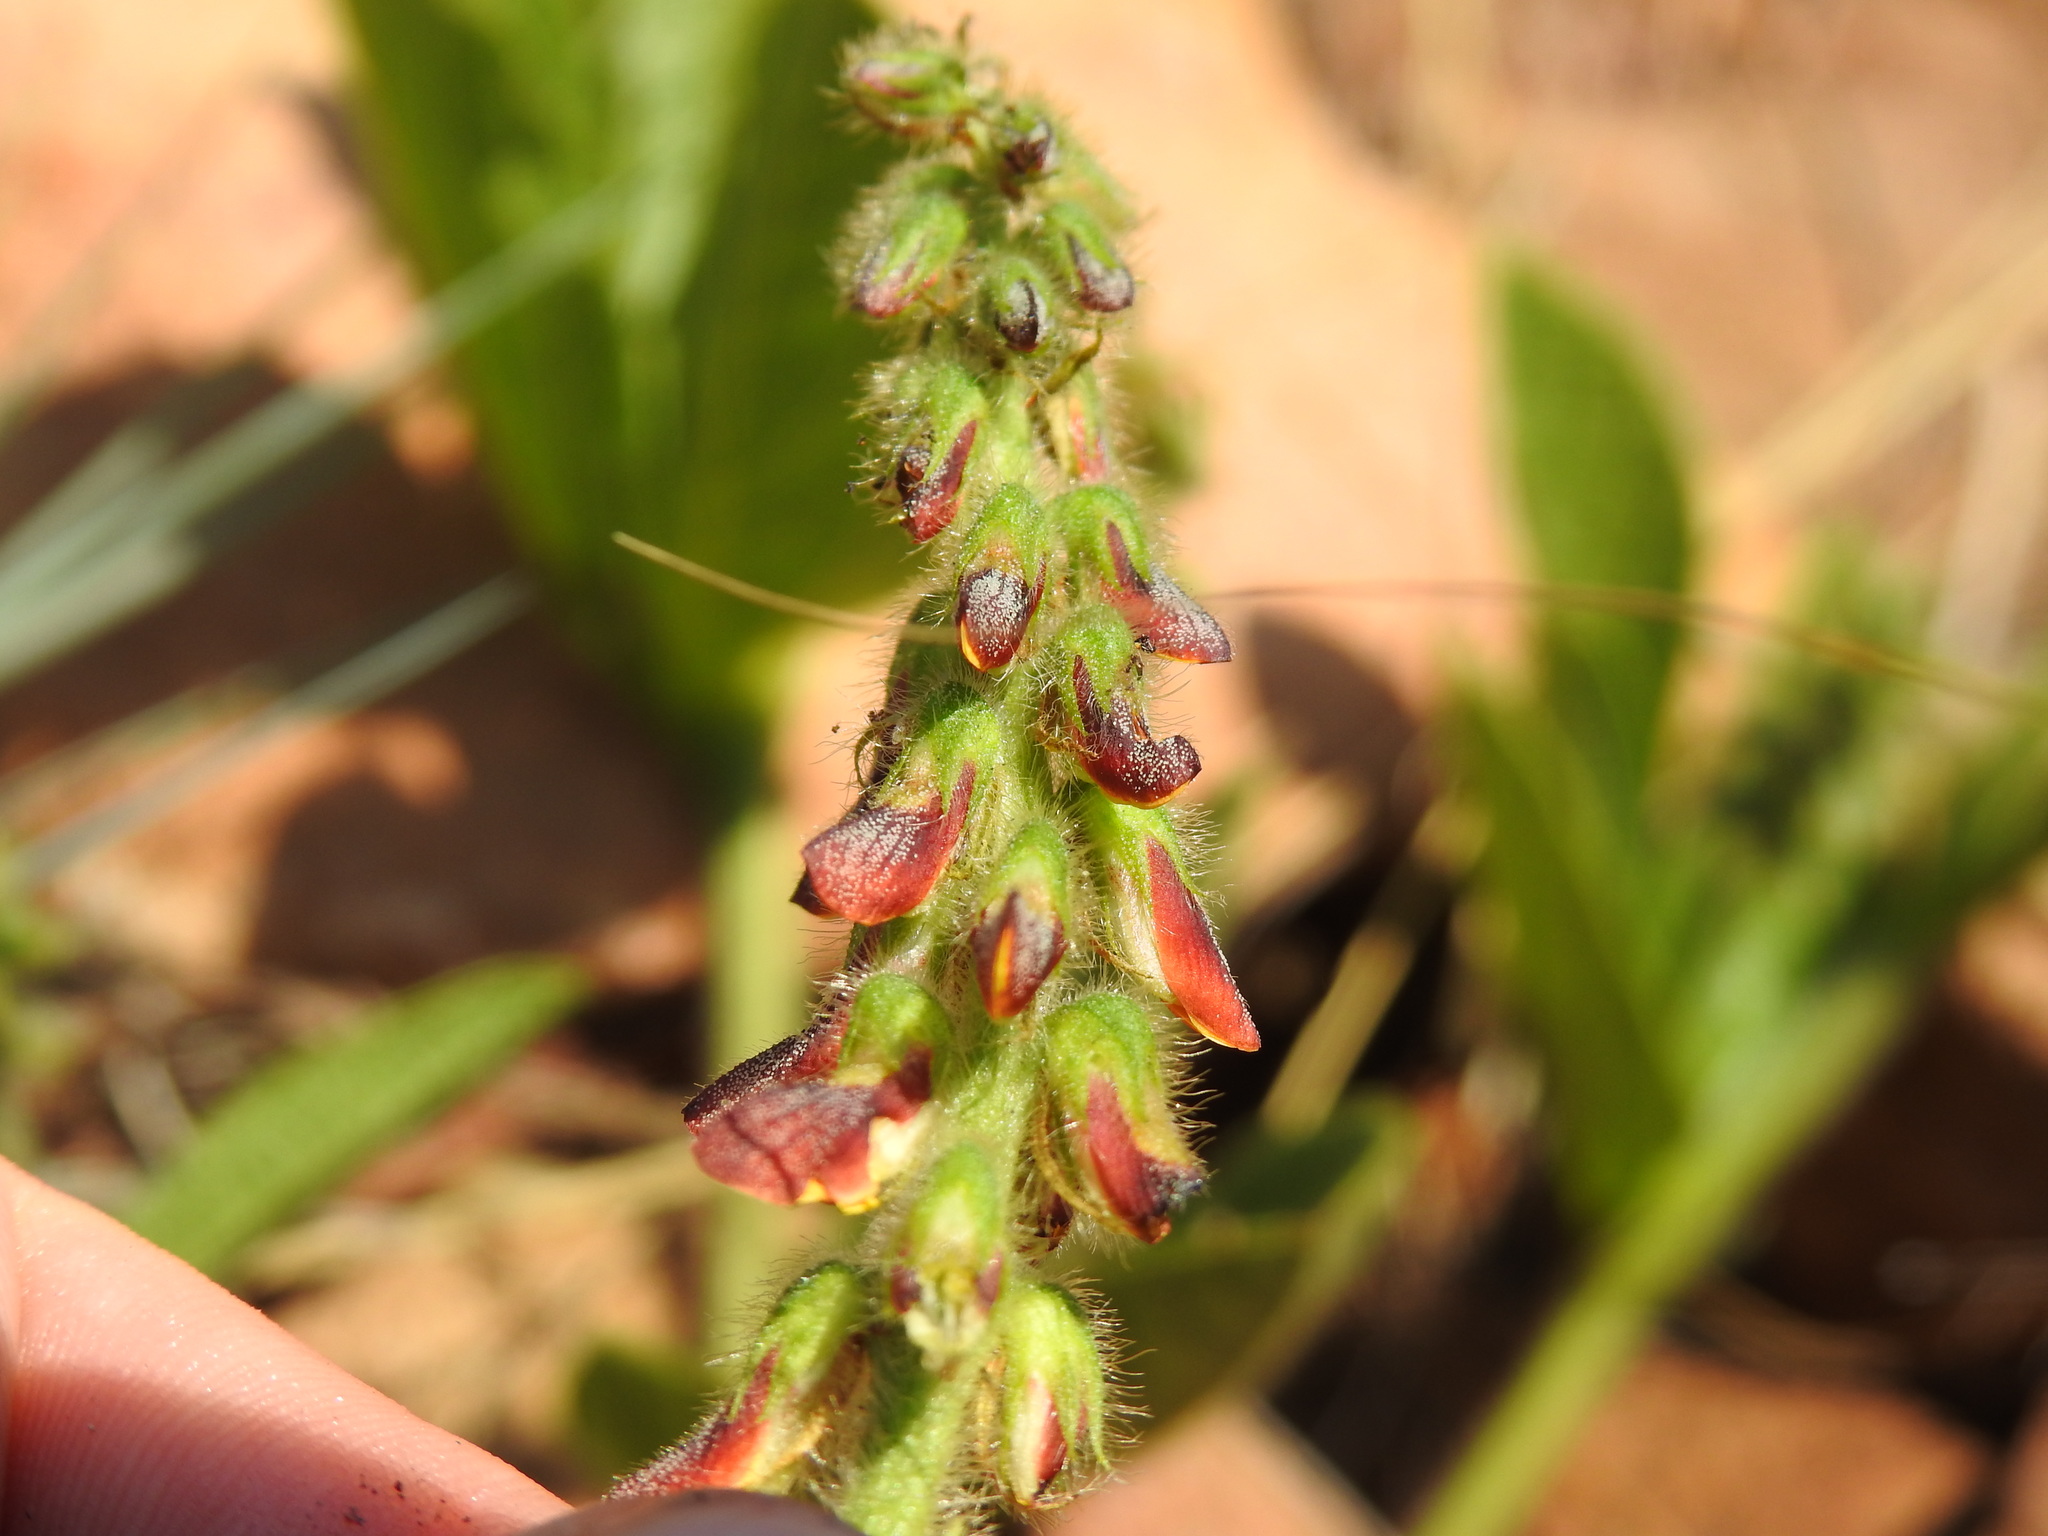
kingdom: Plantae
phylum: Tracheophyta
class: Magnoliopsida
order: Fabales
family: Fabaceae
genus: Eriosema
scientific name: Eriosema cordatum
